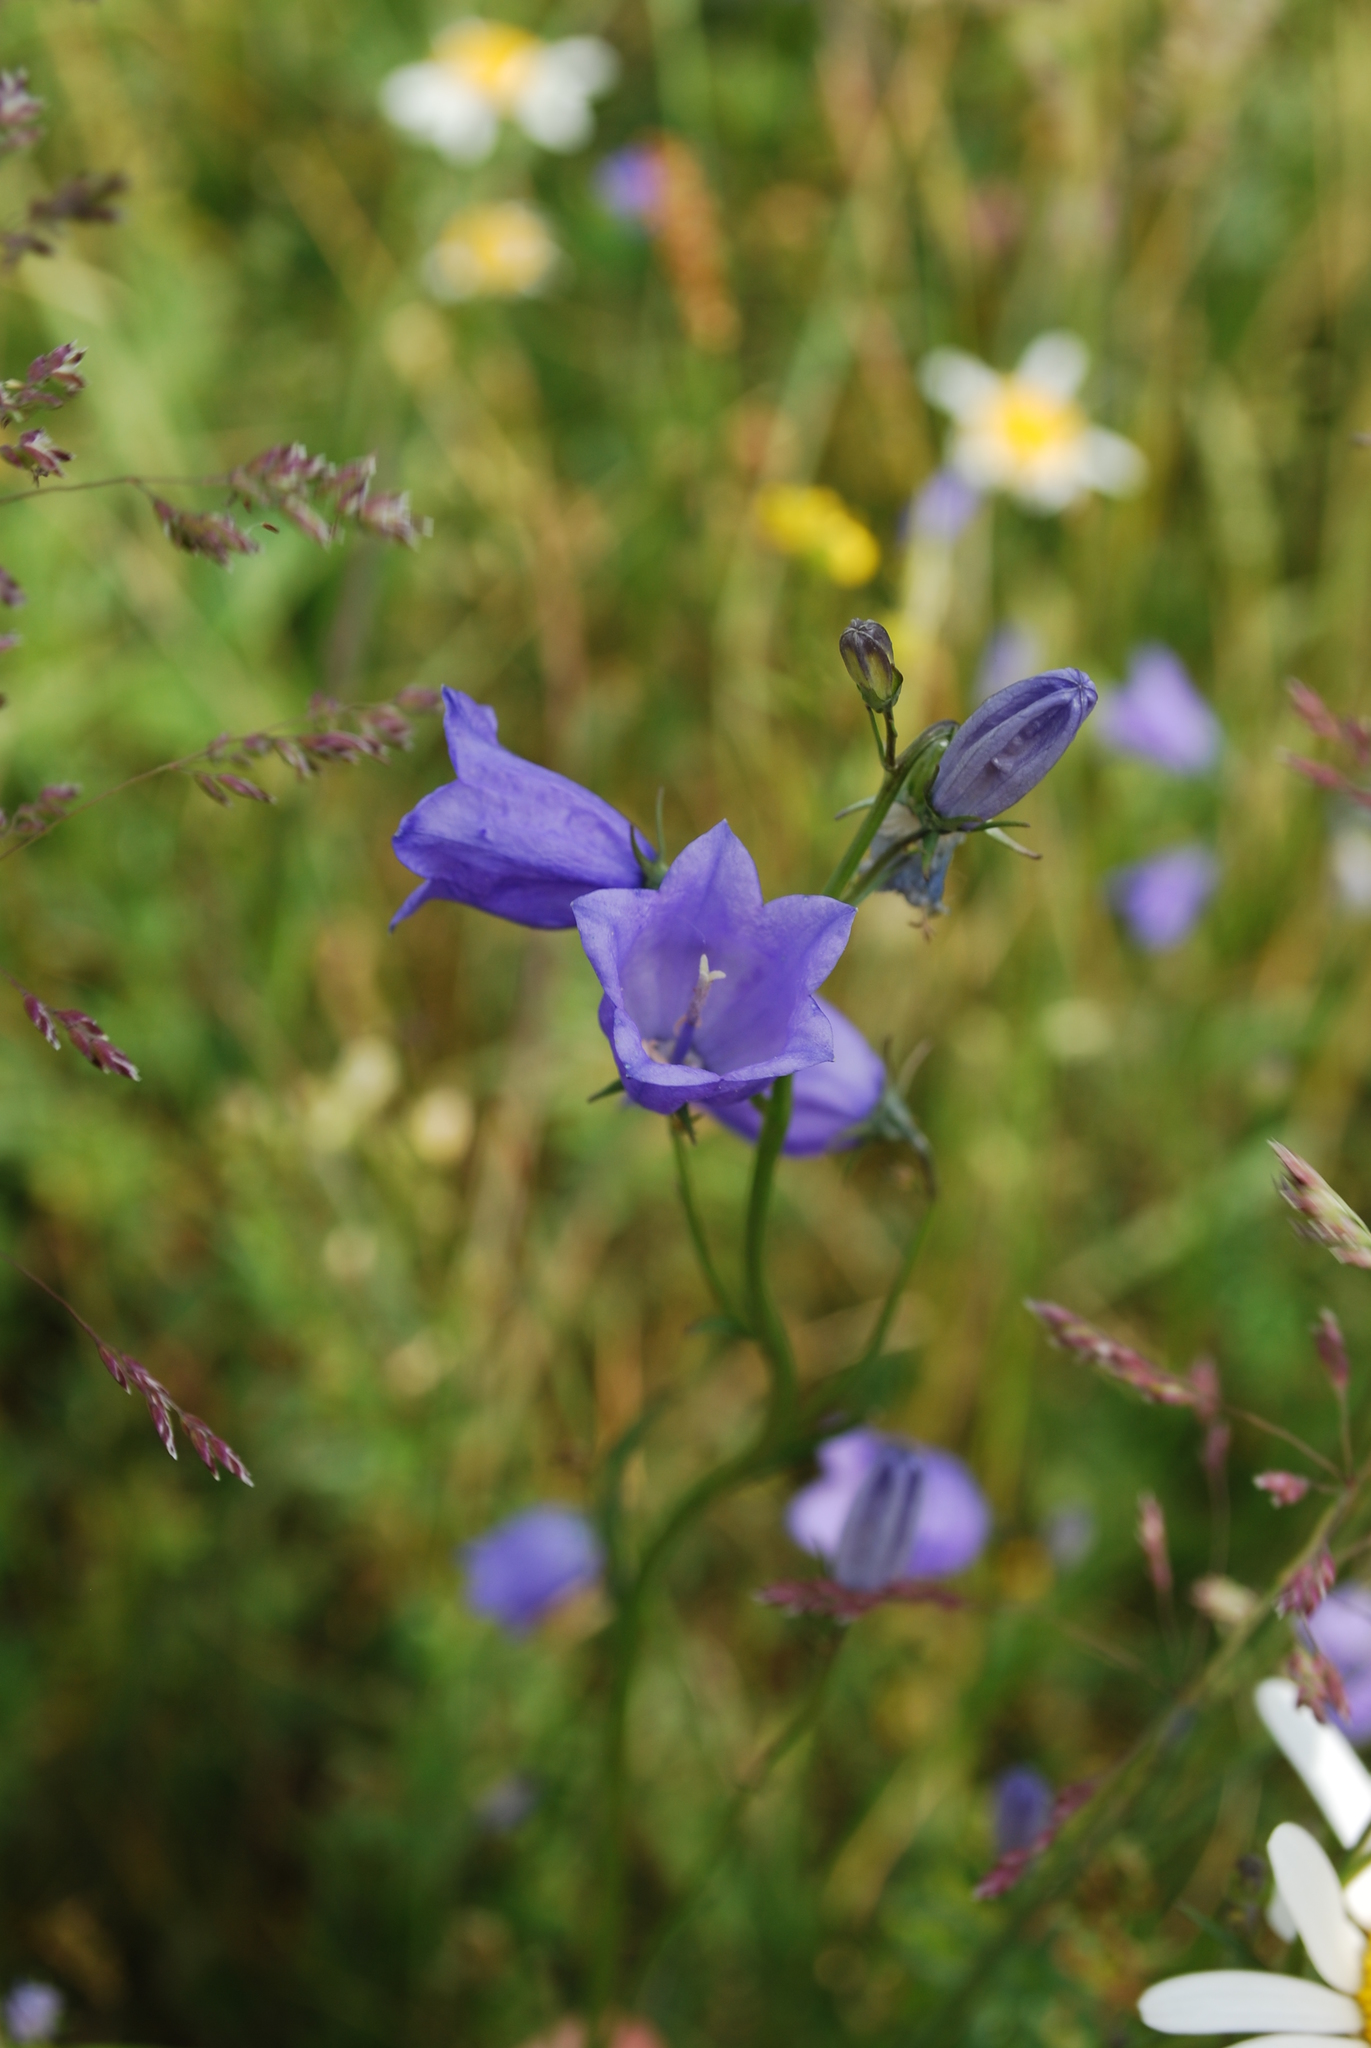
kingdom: Plantae
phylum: Tracheophyta
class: Magnoliopsida
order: Asterales
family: Campanulaceae
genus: Campanula
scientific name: Campanula rotundifolia
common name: Harebell
